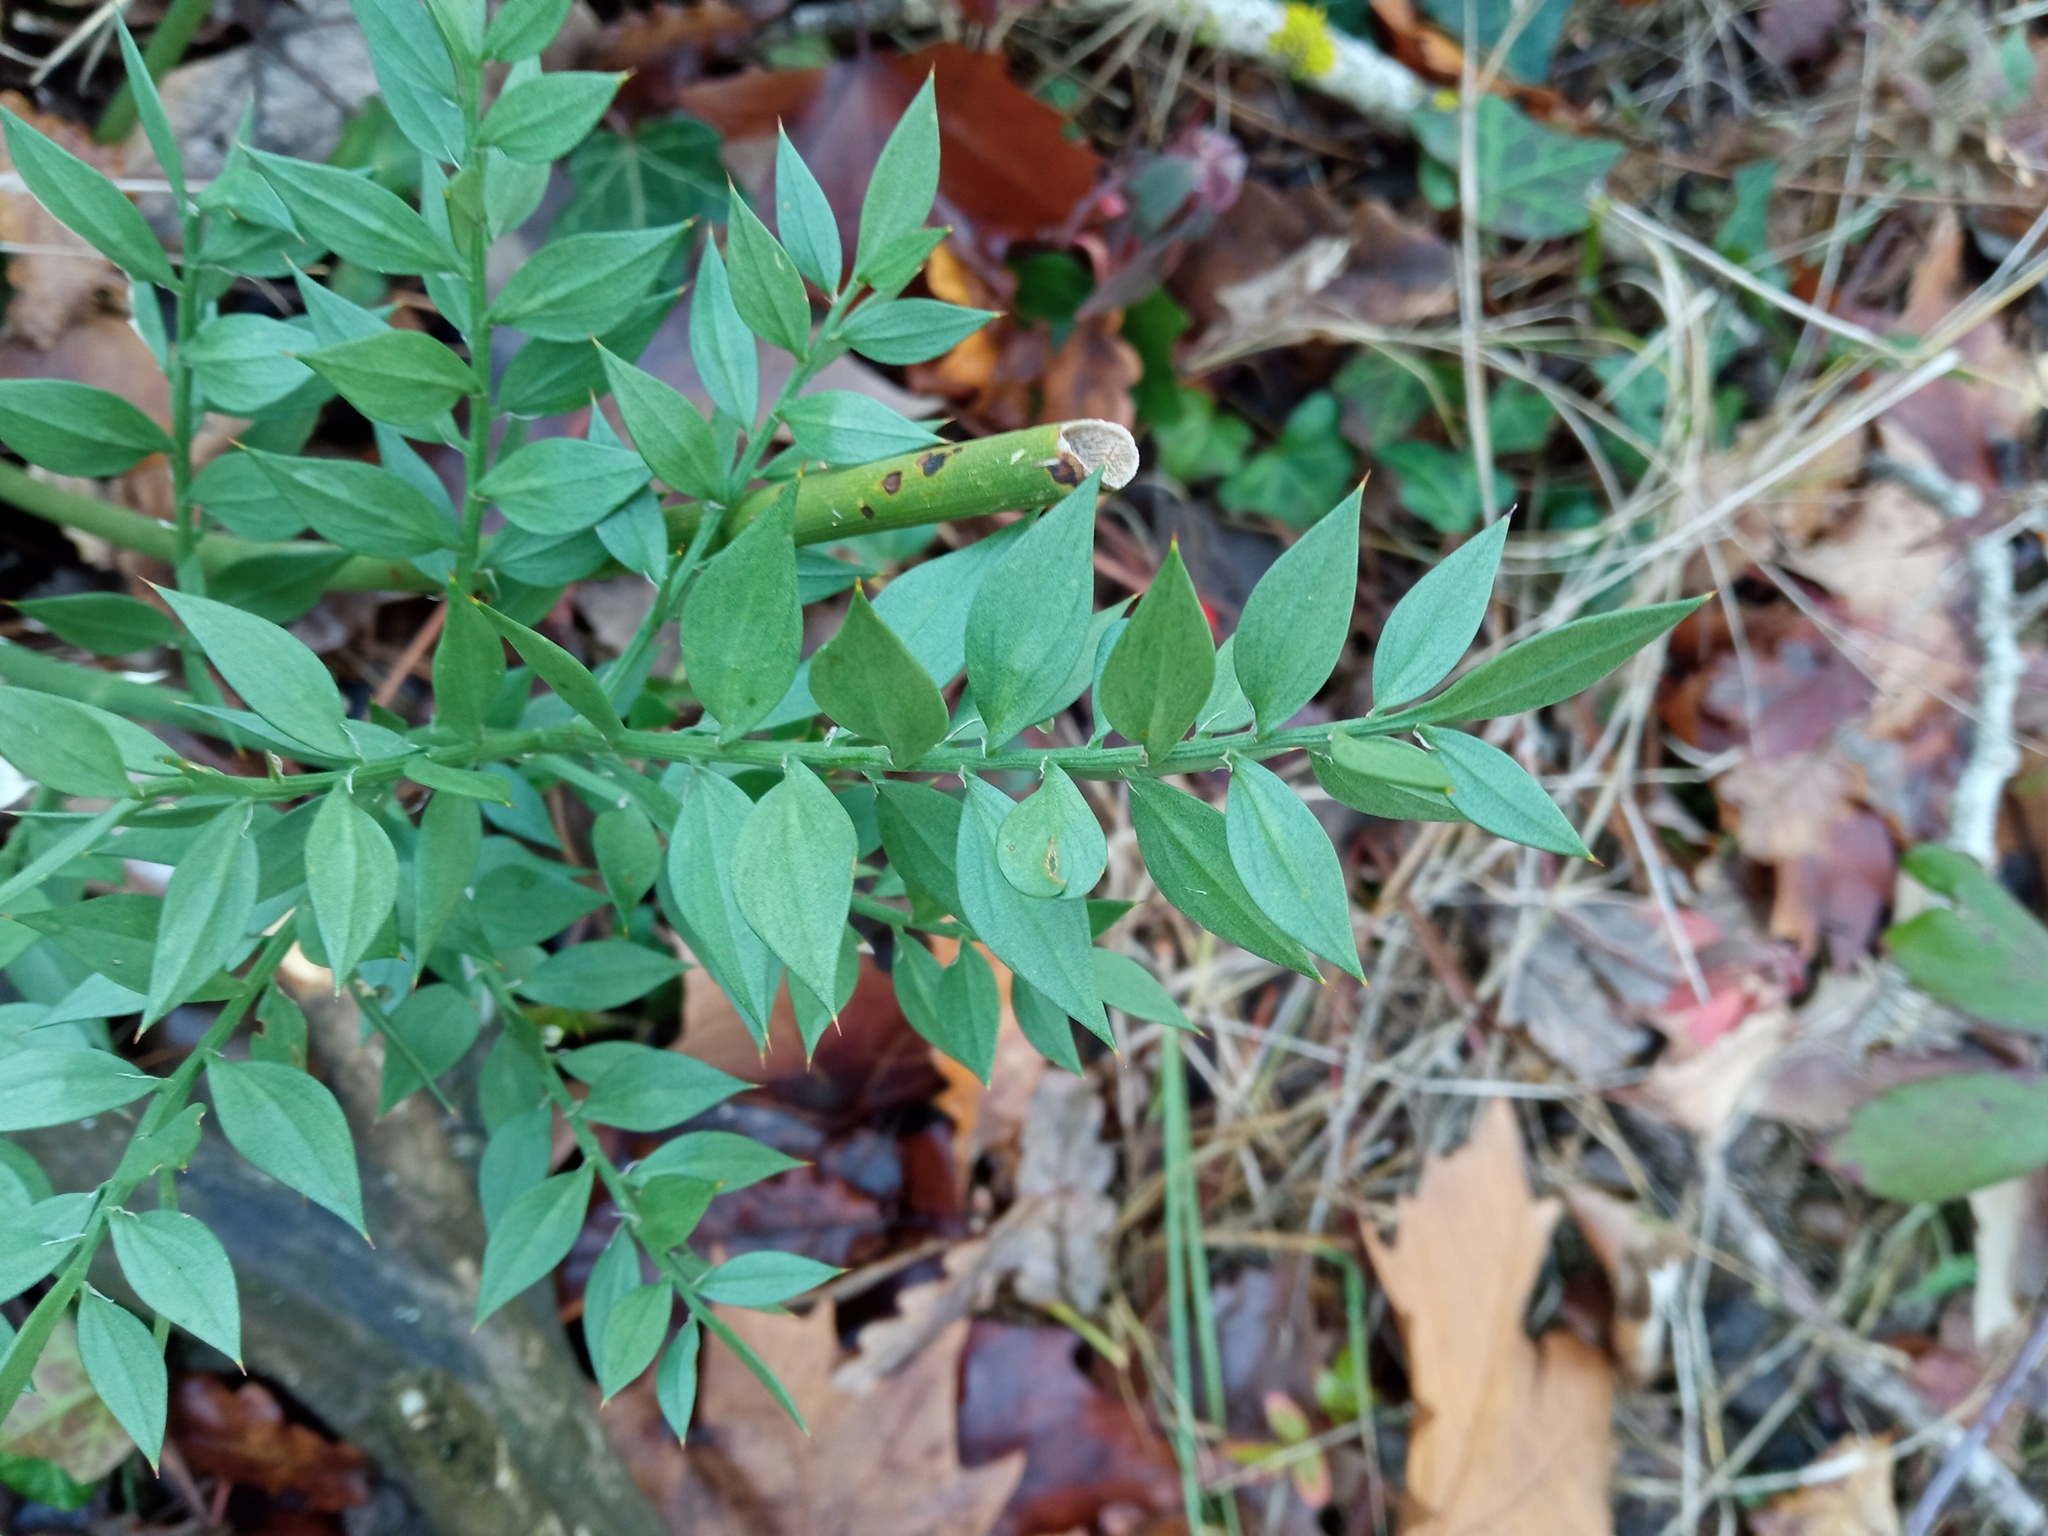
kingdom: Plantae
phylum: Tracheophyta
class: Liliopsida
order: Asparagales
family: Asparagaceae
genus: Ruscus
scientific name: Ruscus aculeatus
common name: Butcher's-broom
